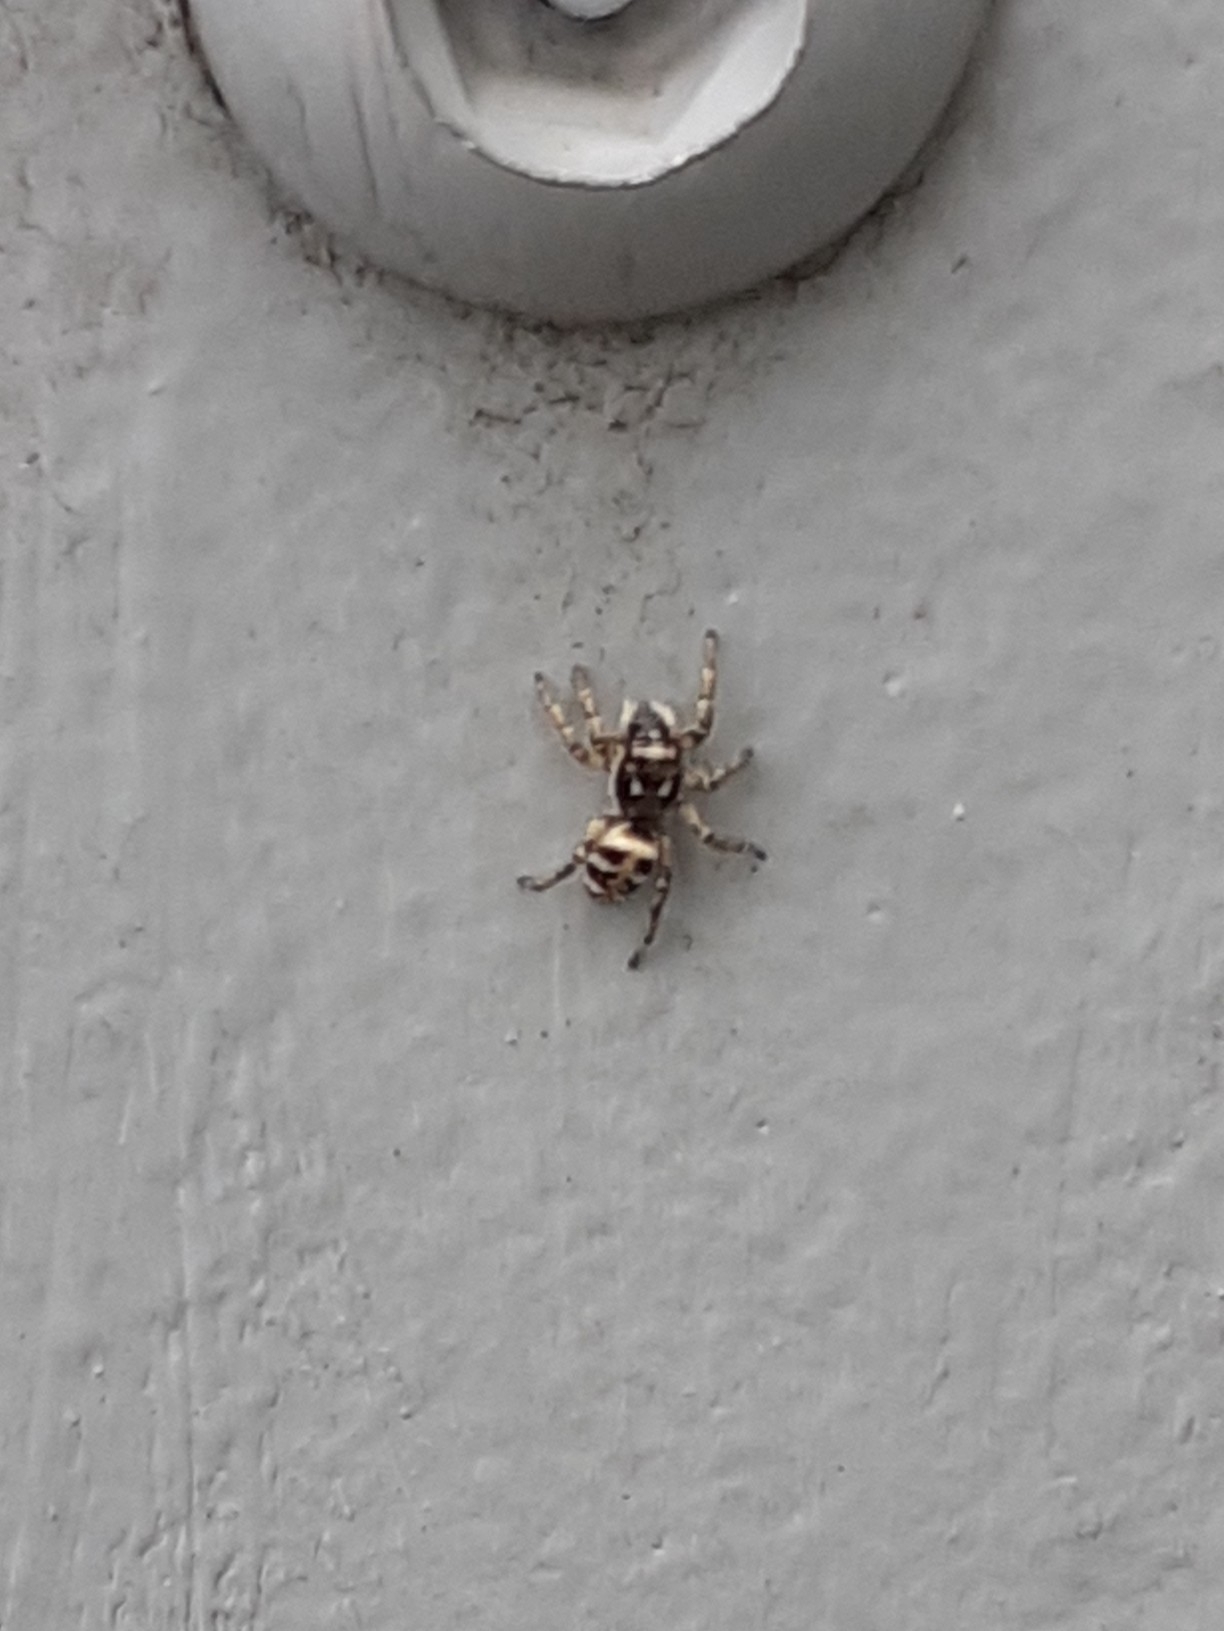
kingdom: Animalia
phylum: Arthropoda
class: Arachnida
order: Araneae
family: Salticidae
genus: Salticus
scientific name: Salticus scenicus
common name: Zebra jumper
